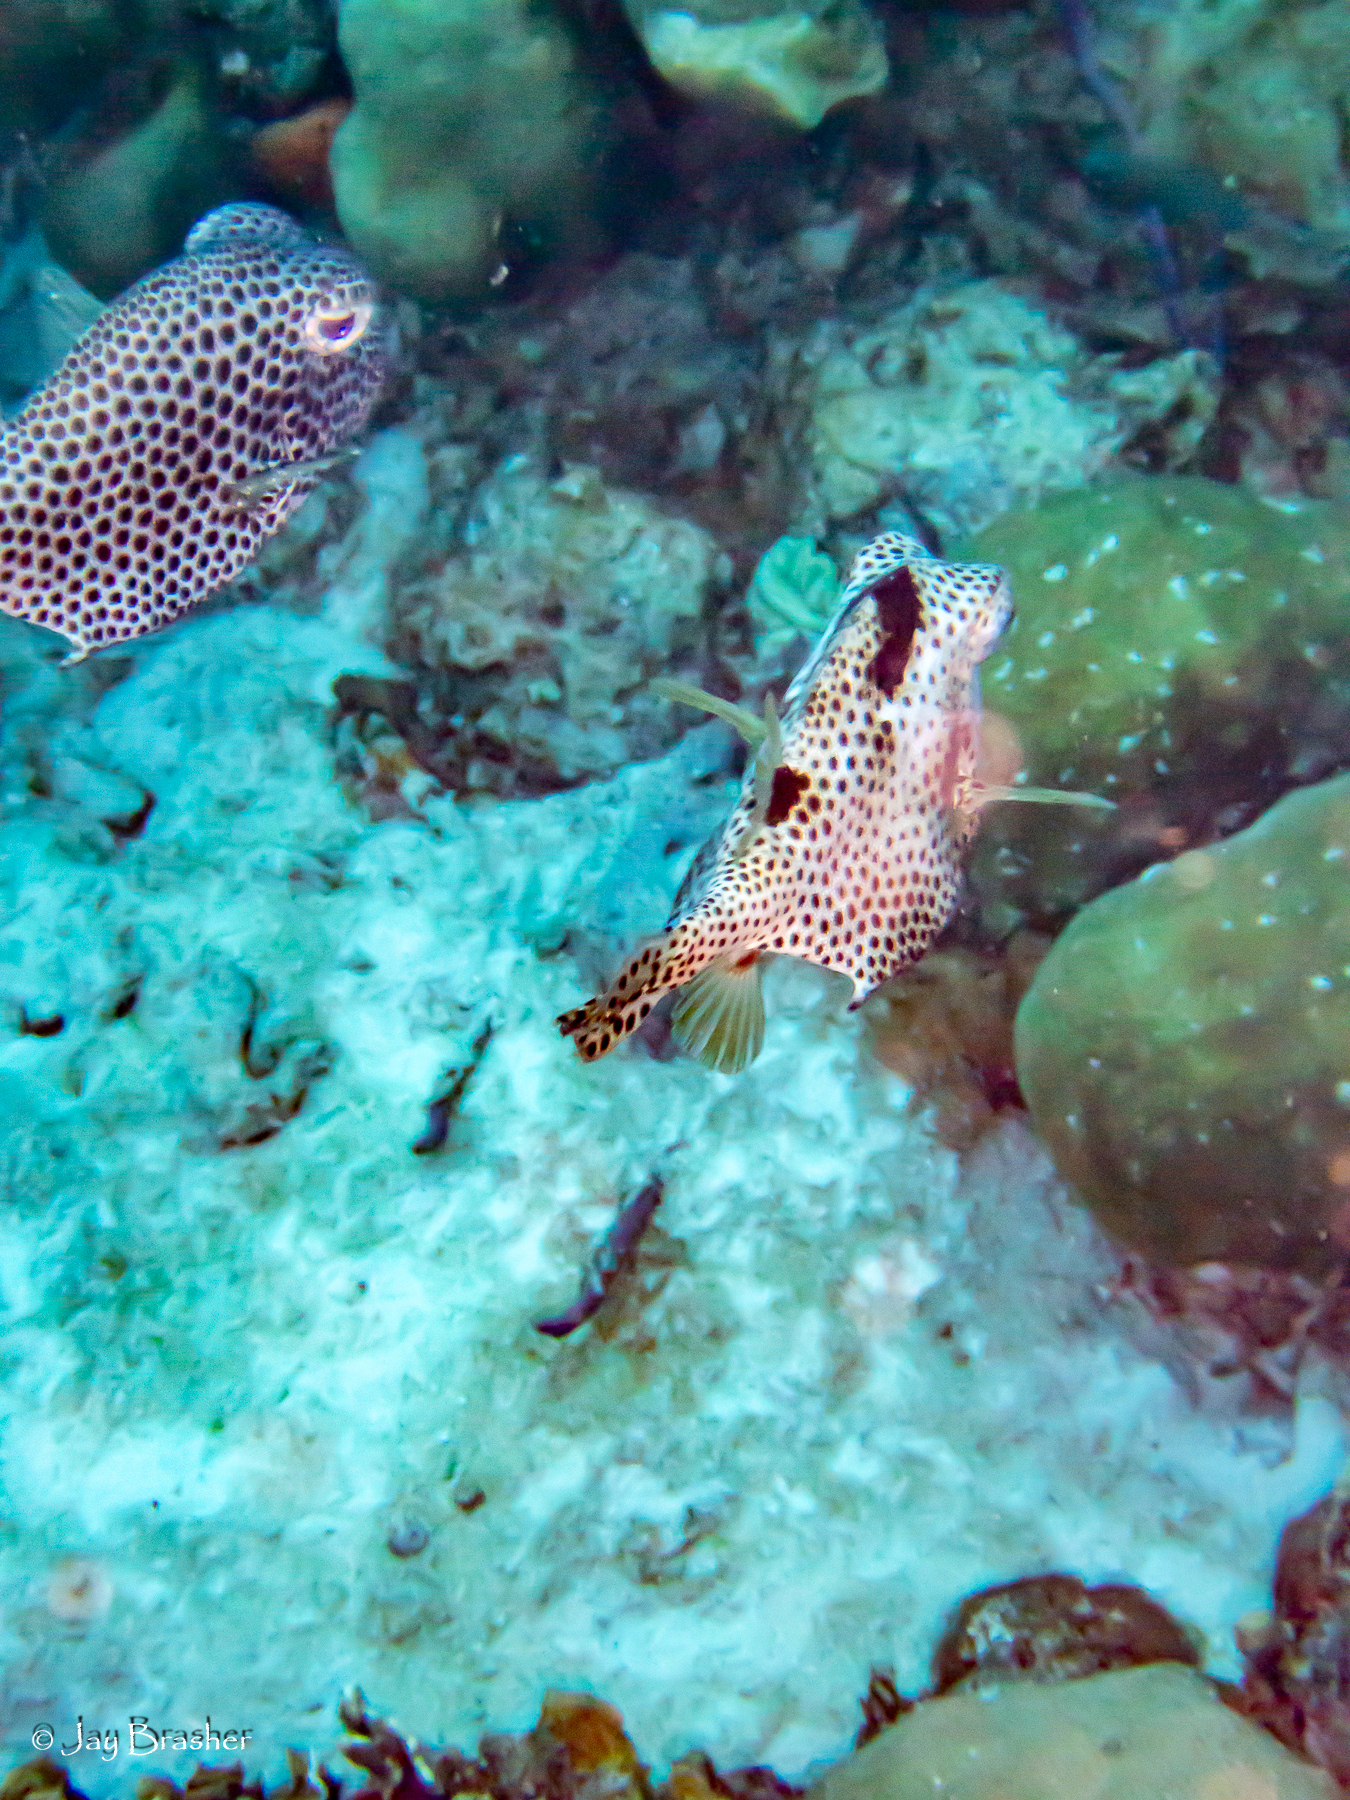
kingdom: Animalia
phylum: Chordata
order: Tetraodontiformes
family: Ostraciidae
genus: Lactophrys
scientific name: Lactophrys triqueter
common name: Smooth trunkfish
